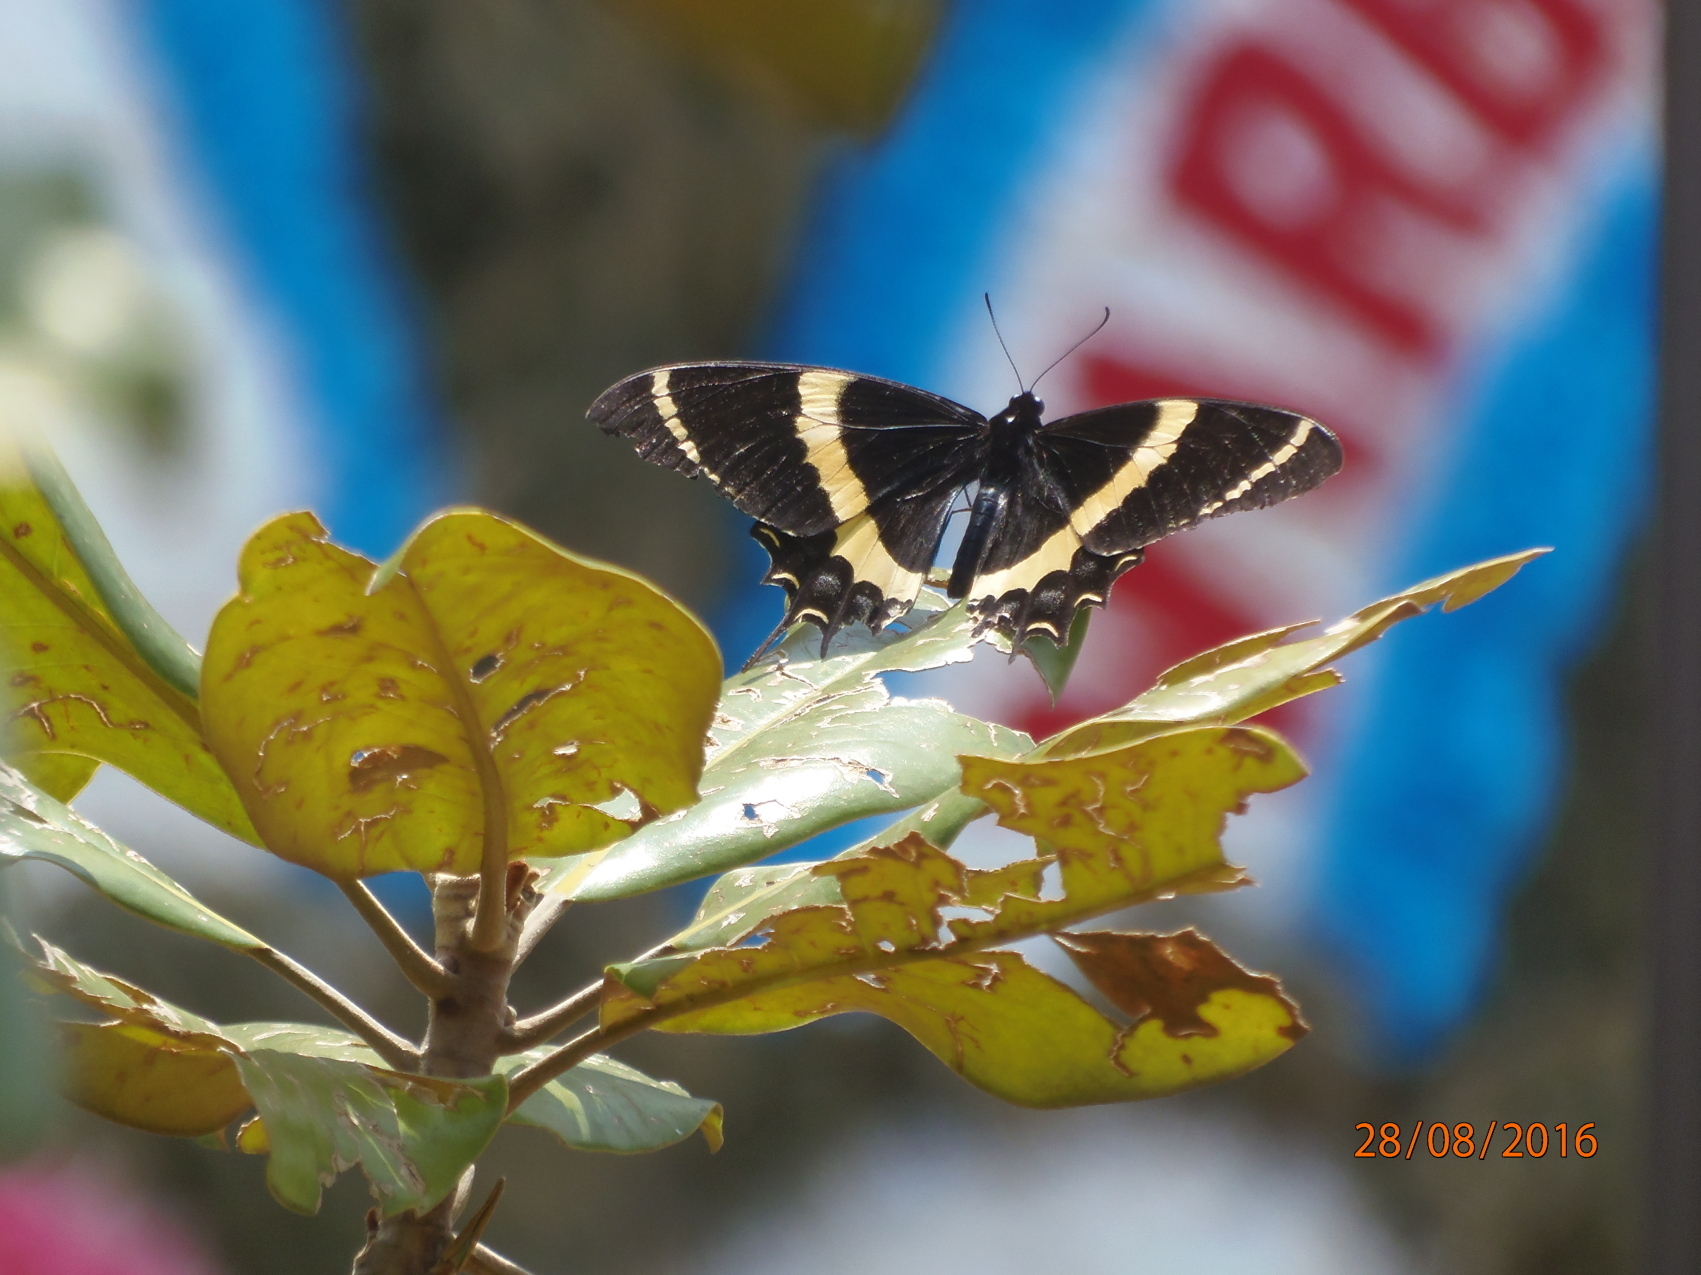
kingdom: Animalia
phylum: Arthropoda
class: Insecta
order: Lepidoptera
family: Papilionidae
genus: Papilio
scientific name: Papilio garamas
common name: Magnificent swallowtail
